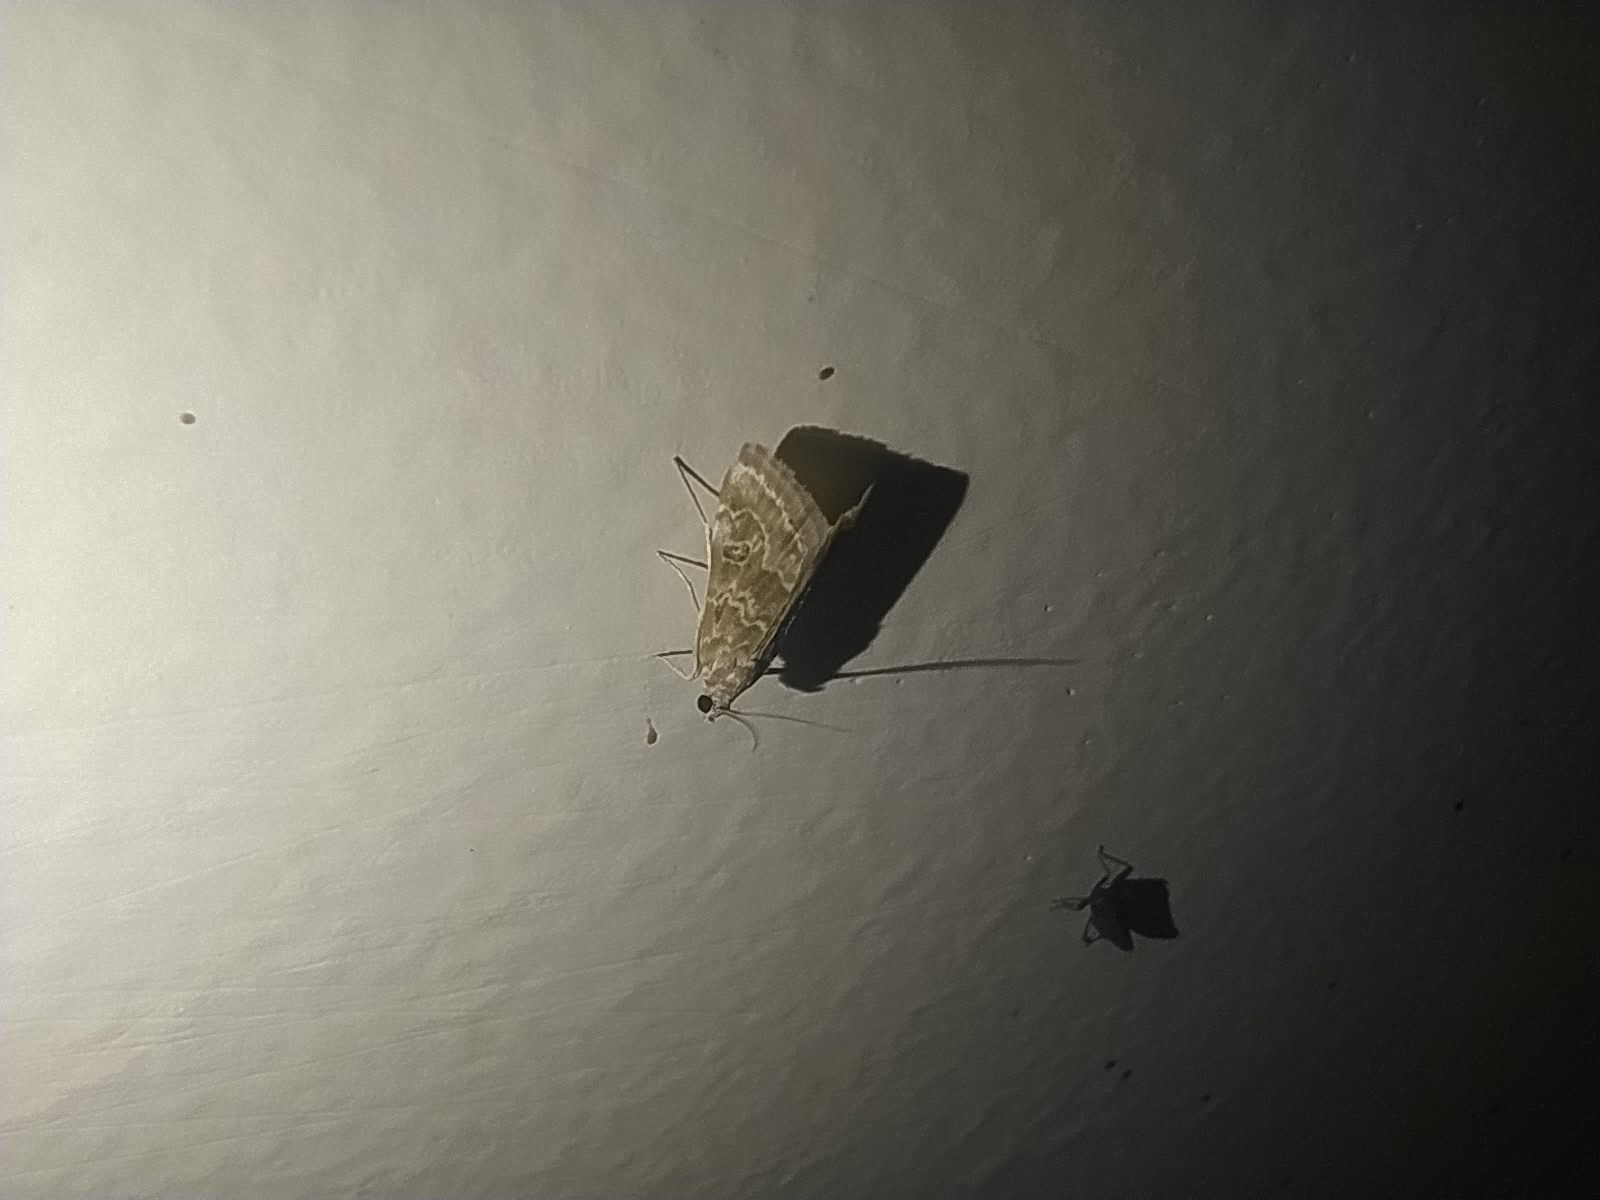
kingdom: Animalia
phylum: Arthropoda
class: Insecta
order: Lepidoptera
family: Crambidae
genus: Hellula
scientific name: Hellula undalis
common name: Cabbage webworm
